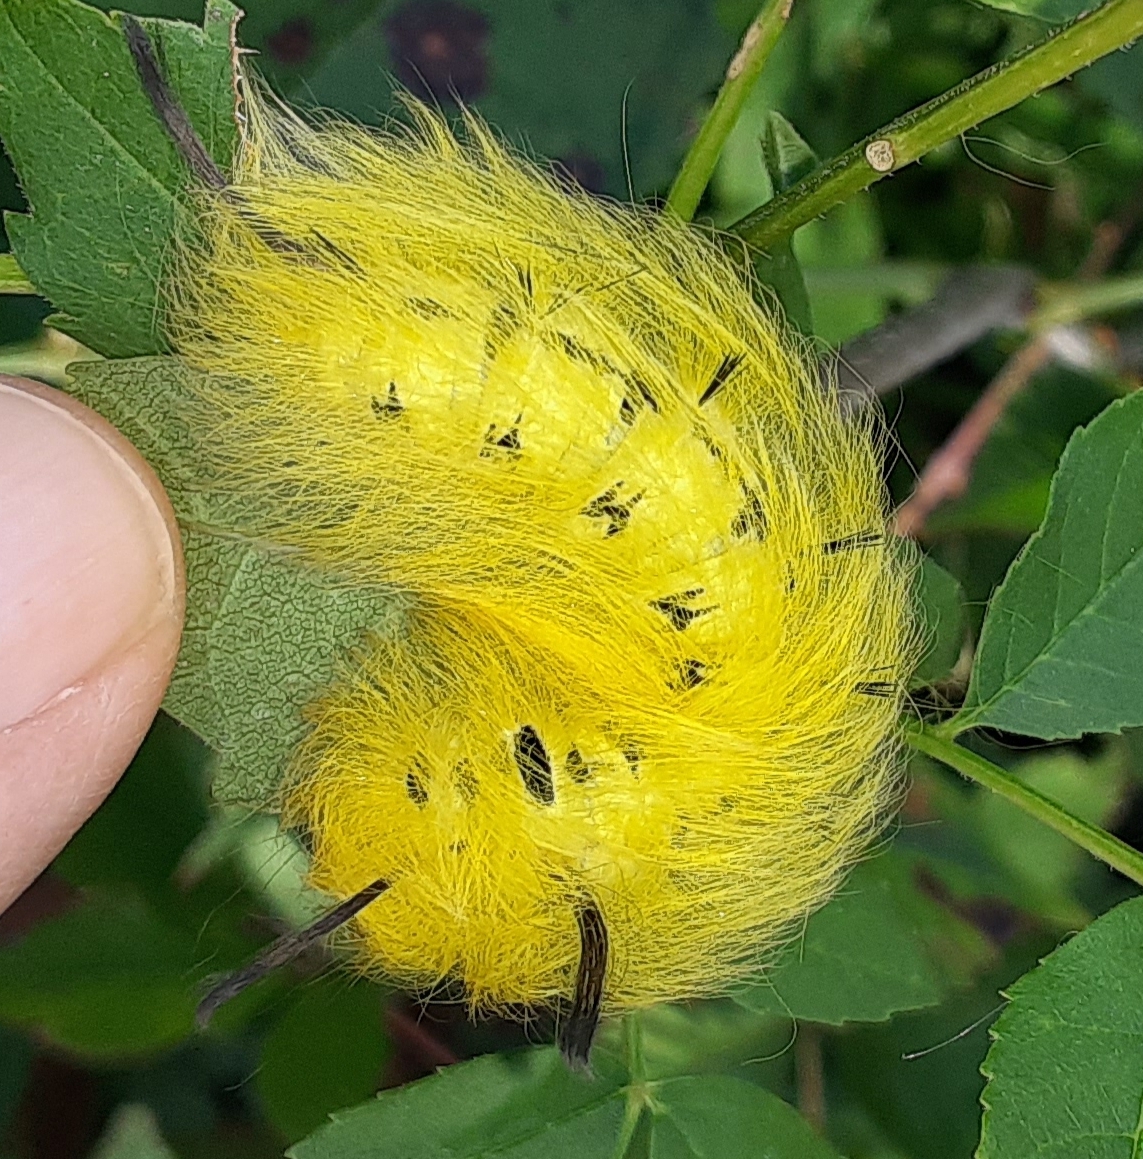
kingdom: Animalia
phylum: Arthropoda
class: Insecta
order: Lepidoptera
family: Apatelodidae
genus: Hygrochroa
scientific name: Hygrochroa Apatelodes torrefacta
